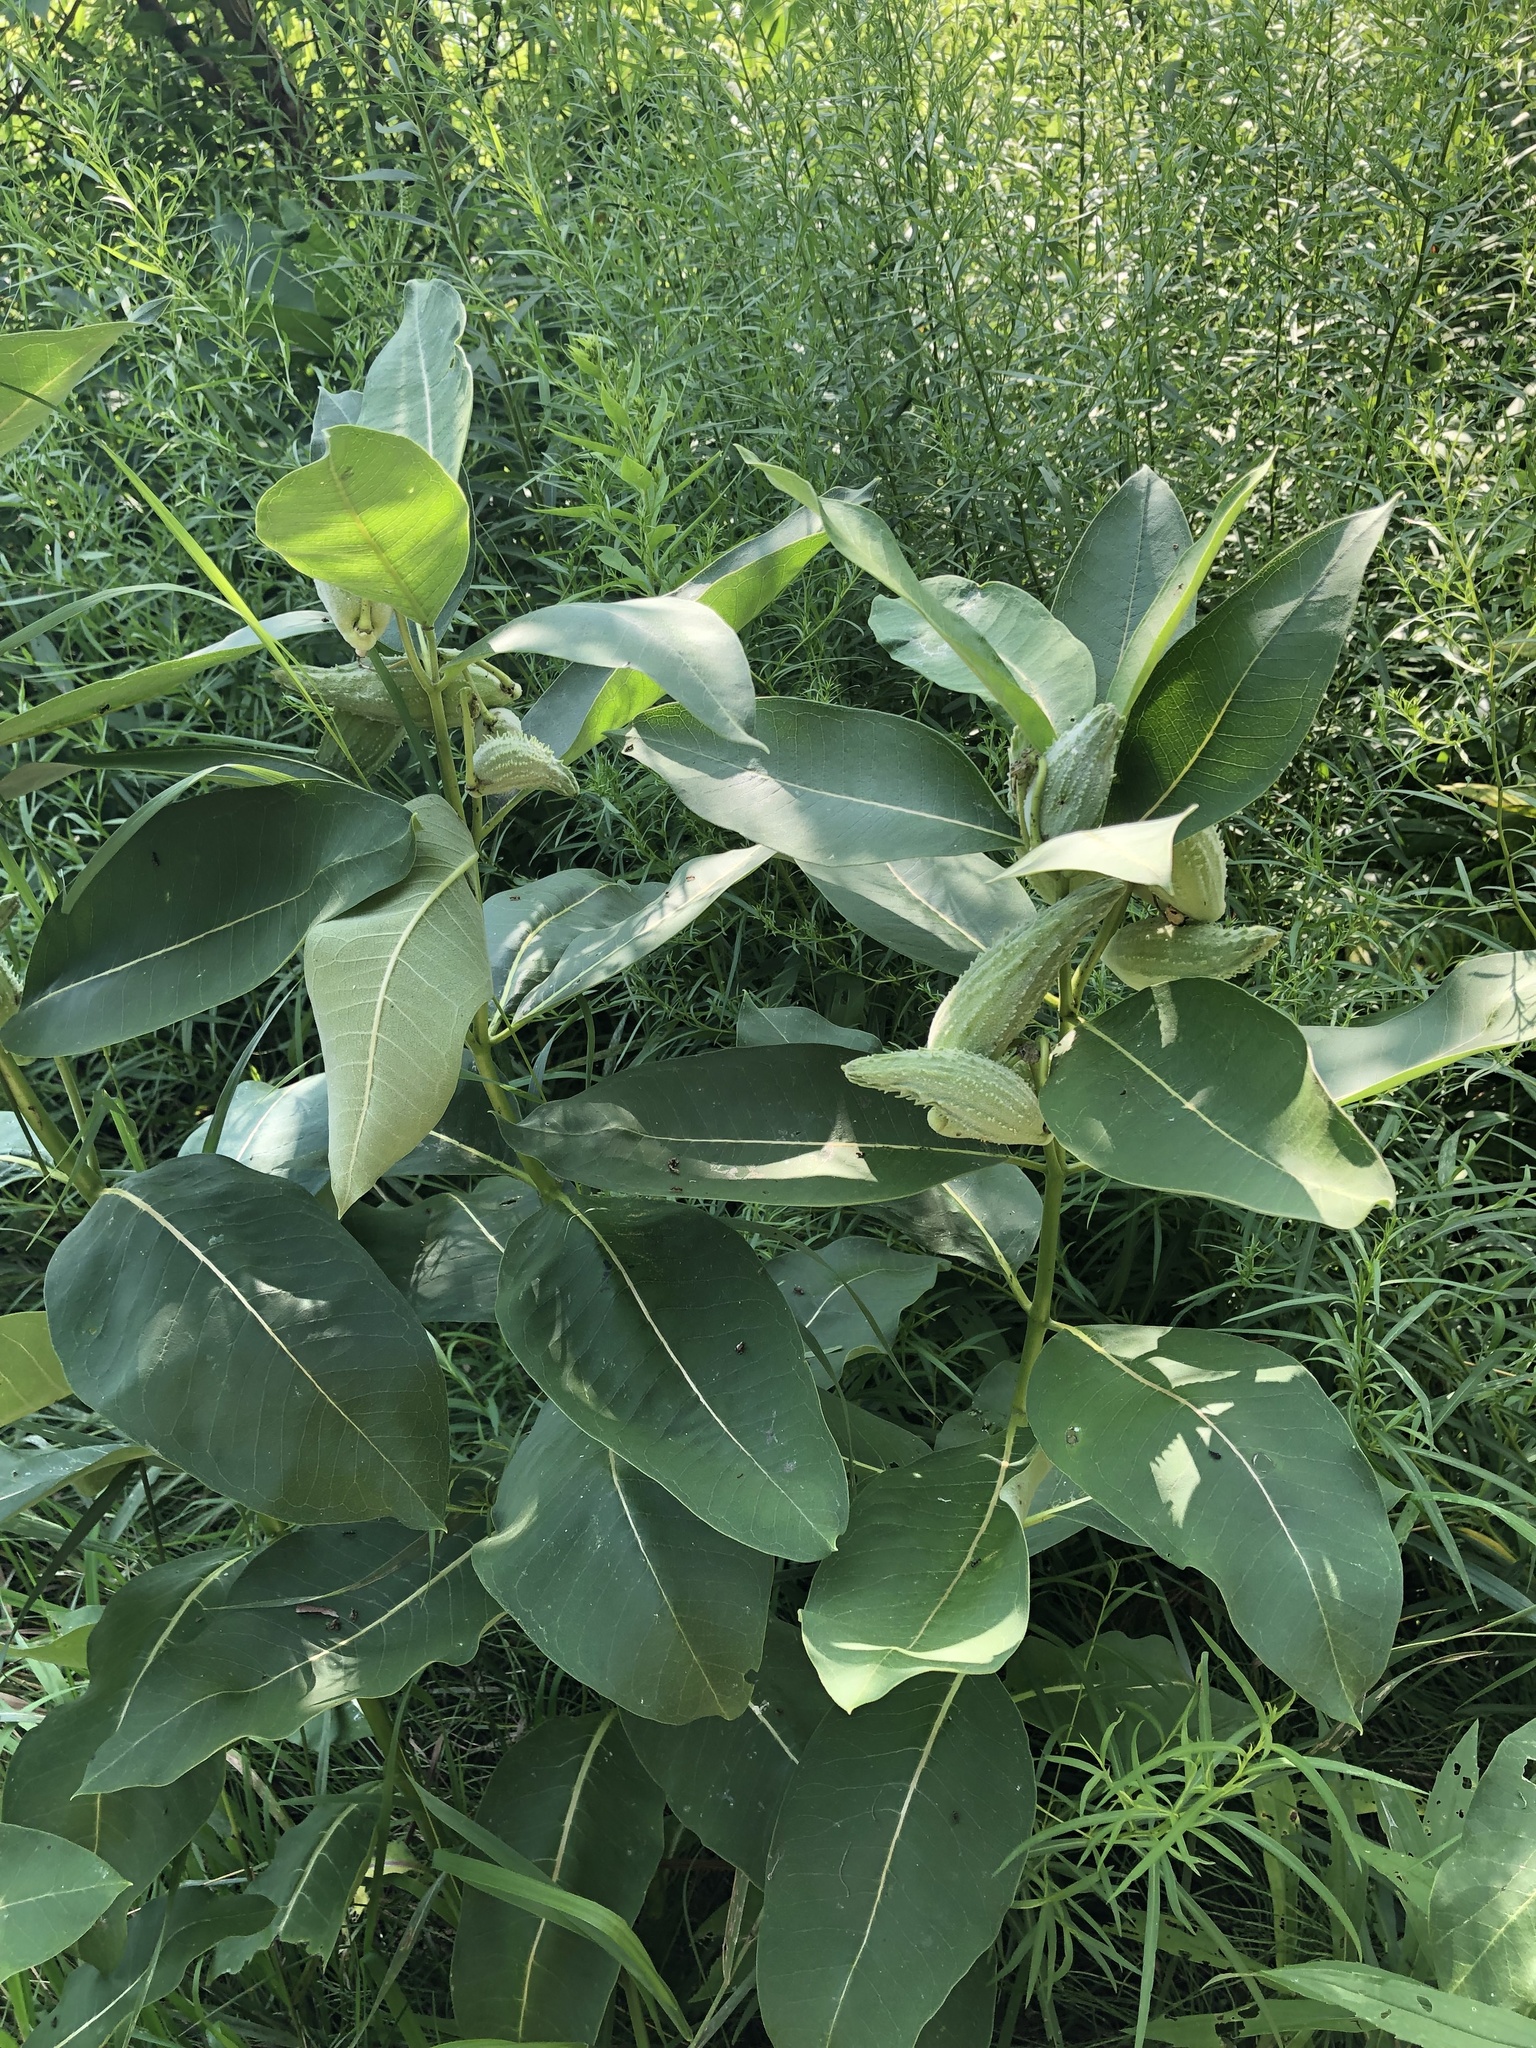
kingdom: Plantae
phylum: Tracheophyta
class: Magnoliopsida
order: Gentianales
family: Apocynaceae
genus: Asclepias
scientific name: Asclepias syriaca
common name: Common milkweed
